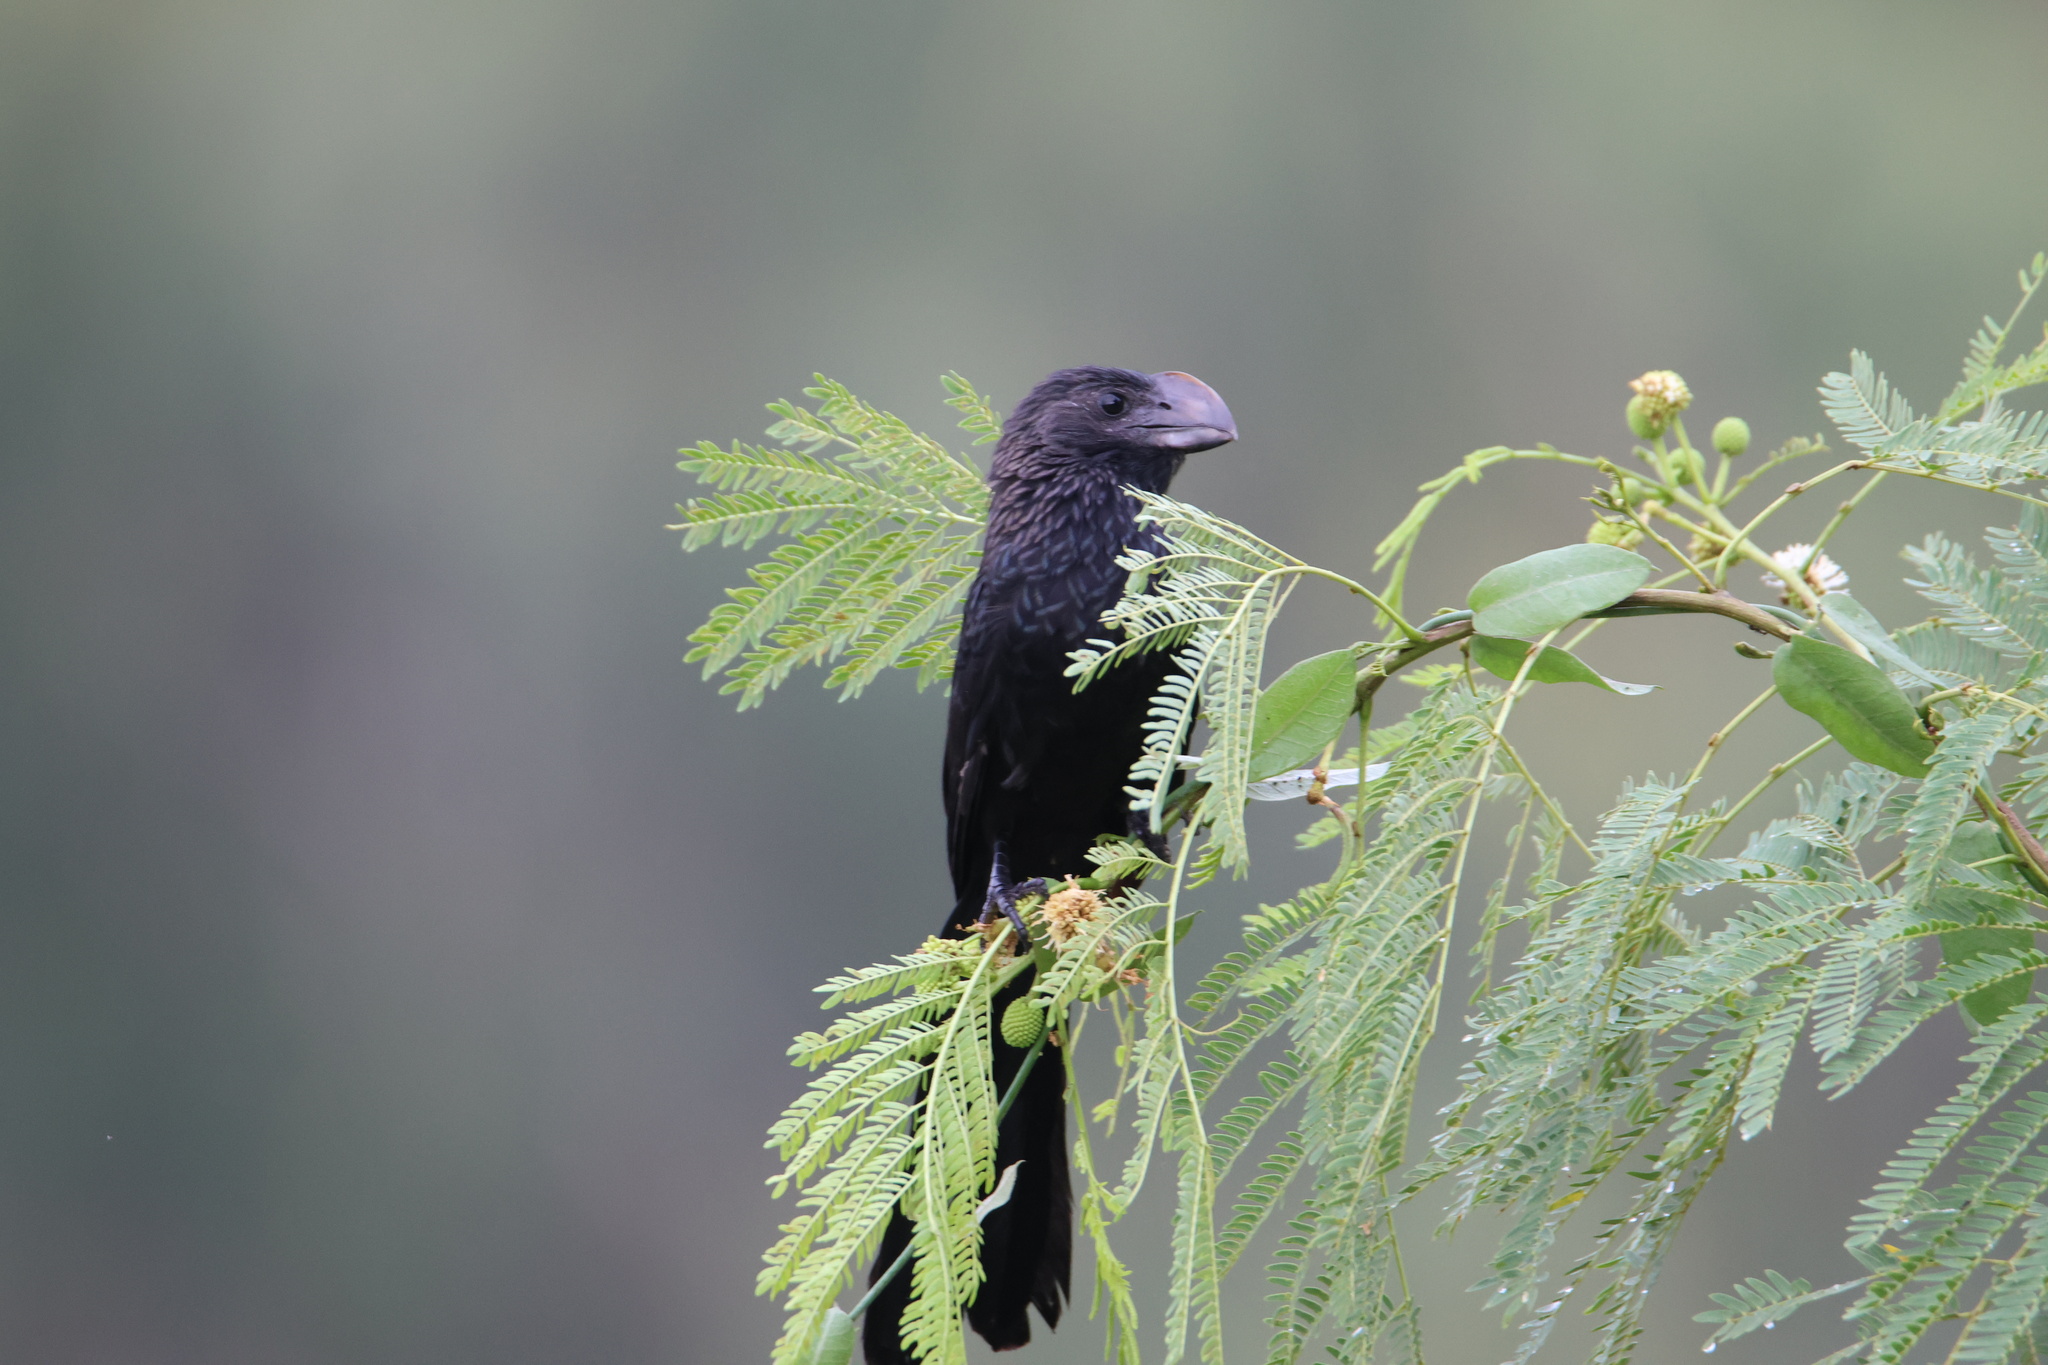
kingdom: Animalia
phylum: Chordata
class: Aves
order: Cuculiformes
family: Cuculidae
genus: Crotophaga
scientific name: Crotophaga ani
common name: Smooth-billed ani
